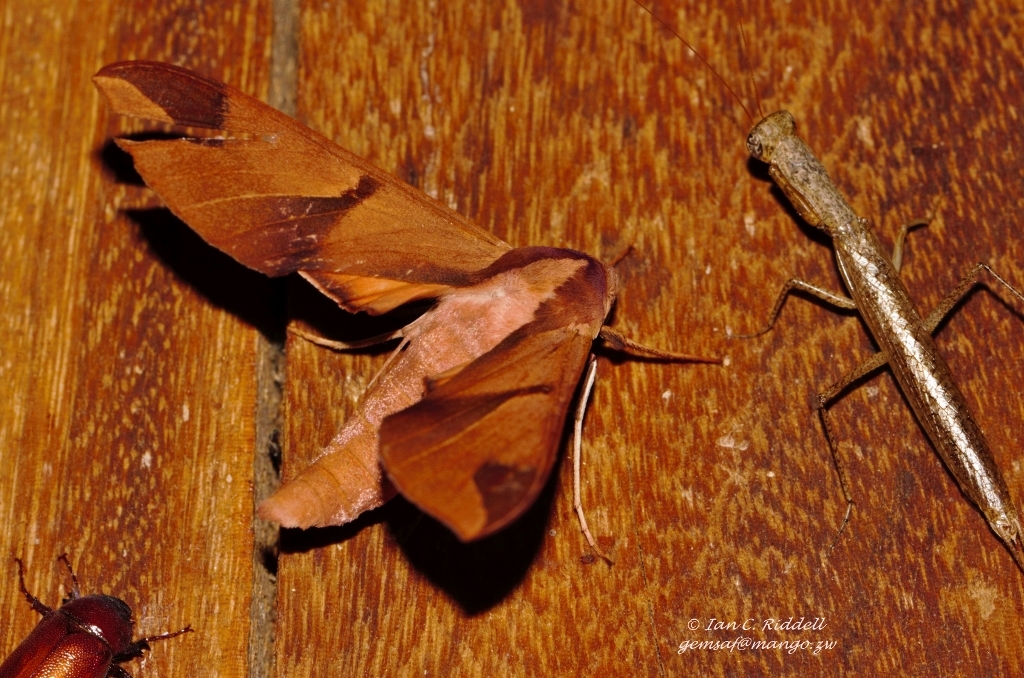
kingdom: Animalia
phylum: Arthropoda
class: Insecta
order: Lepidoptera
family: Sphingidae
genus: Afroclanis
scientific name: Afroclanis neavi
